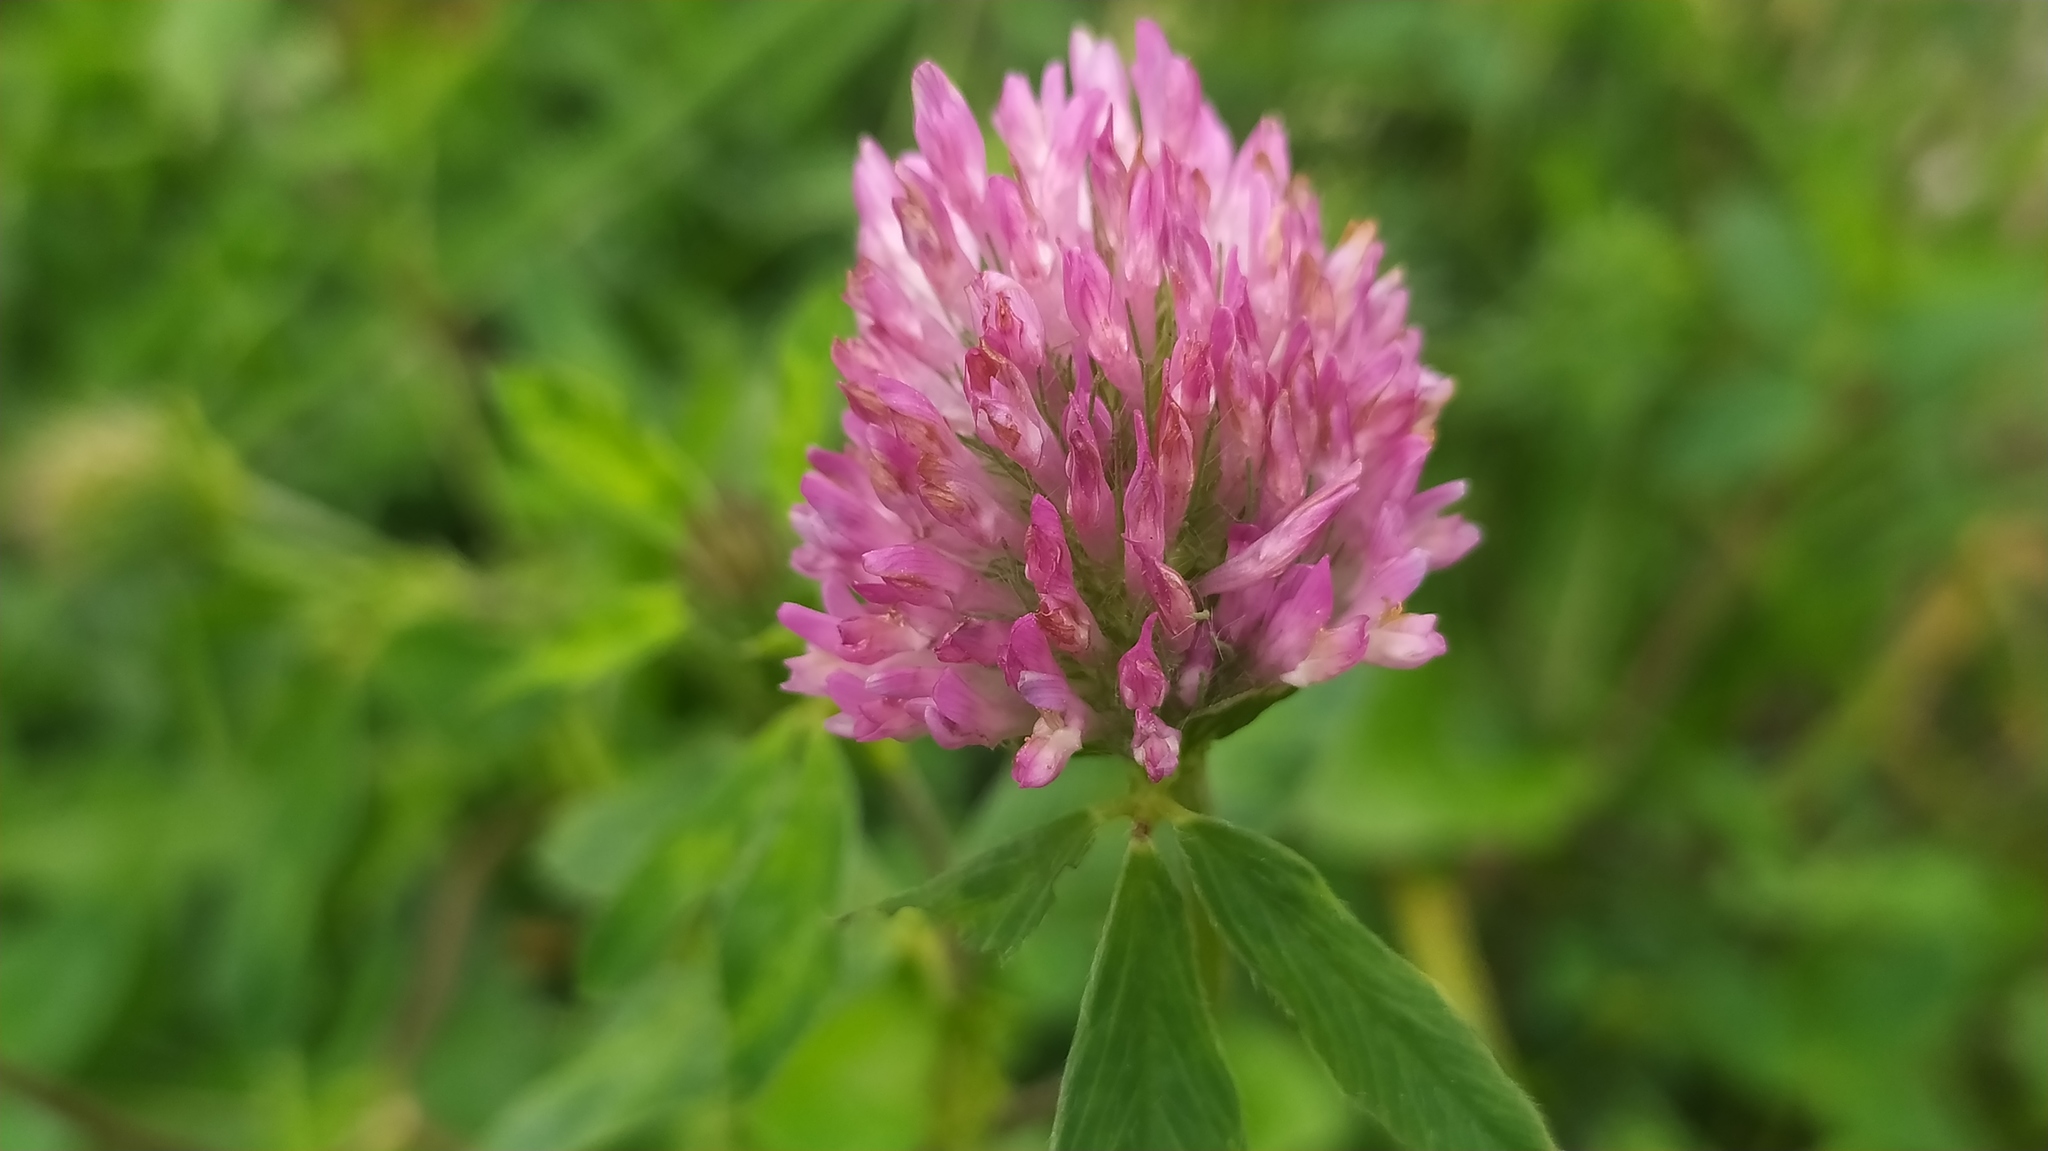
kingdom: Plantae
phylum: Tracheophyta
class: Magnoliopsida
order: Fabales
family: Fabaceae
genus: Trifolium
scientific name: Trifolium pratense
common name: Red clover
